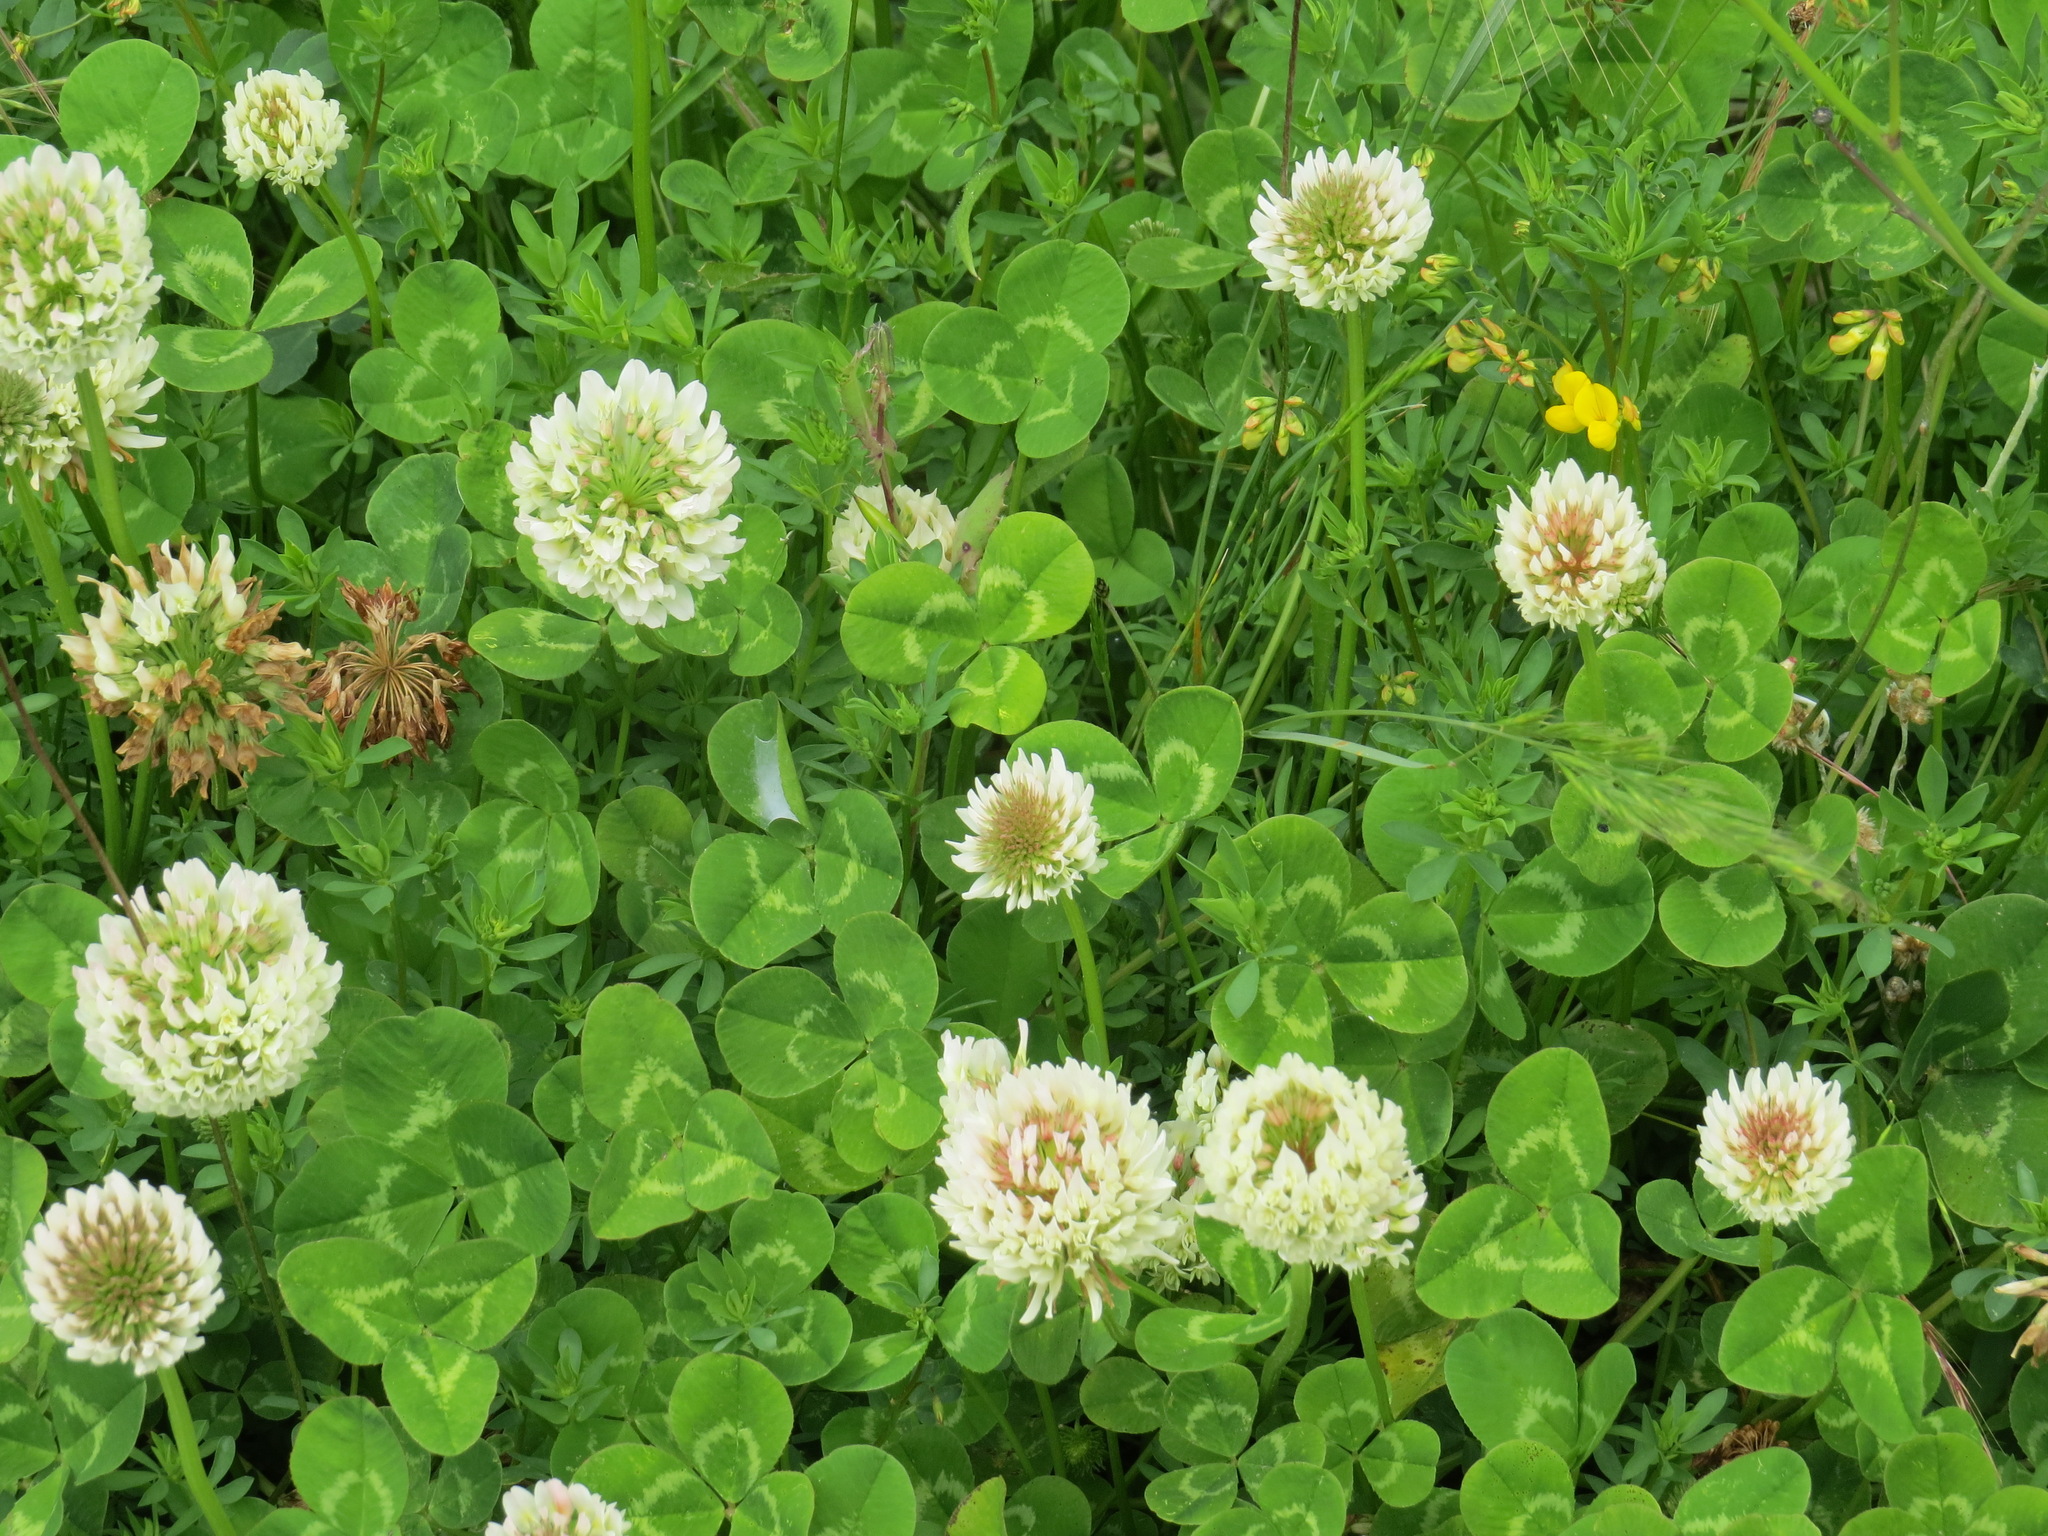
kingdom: Plantae
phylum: Tracheophyta
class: Magnoliopsida
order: Fabales
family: Fabaceae
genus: Trifolium
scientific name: Trifolium repens
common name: White clover
